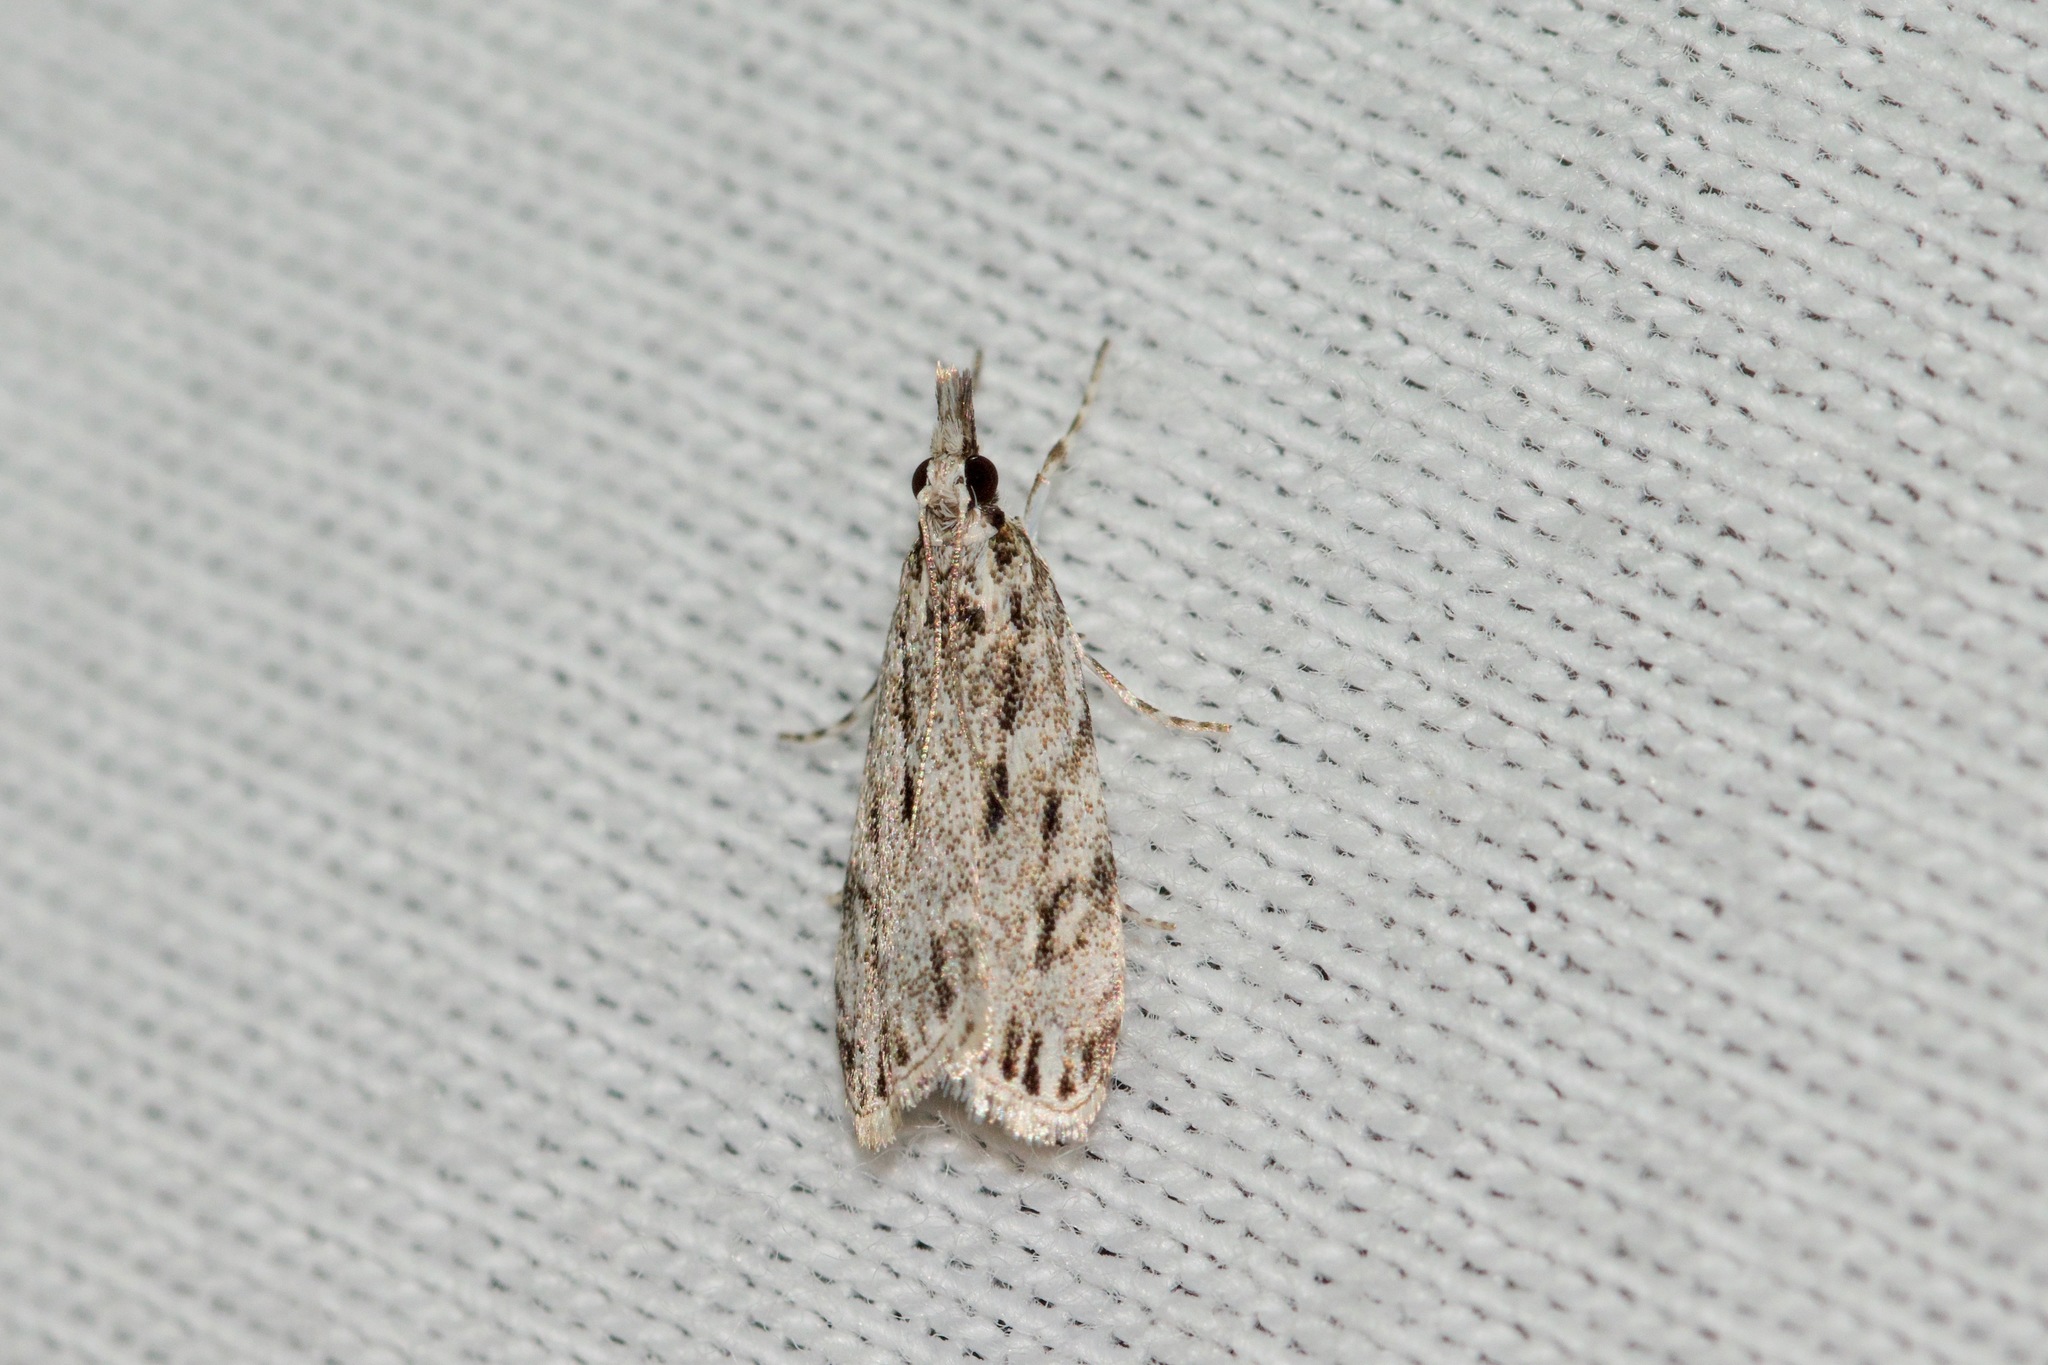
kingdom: Animalia
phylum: Arthropoda
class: Insecta
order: Lepidoptera
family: Crambidae
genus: Eudonia
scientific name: Eudonia strigalis
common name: Striped eudonia moth
